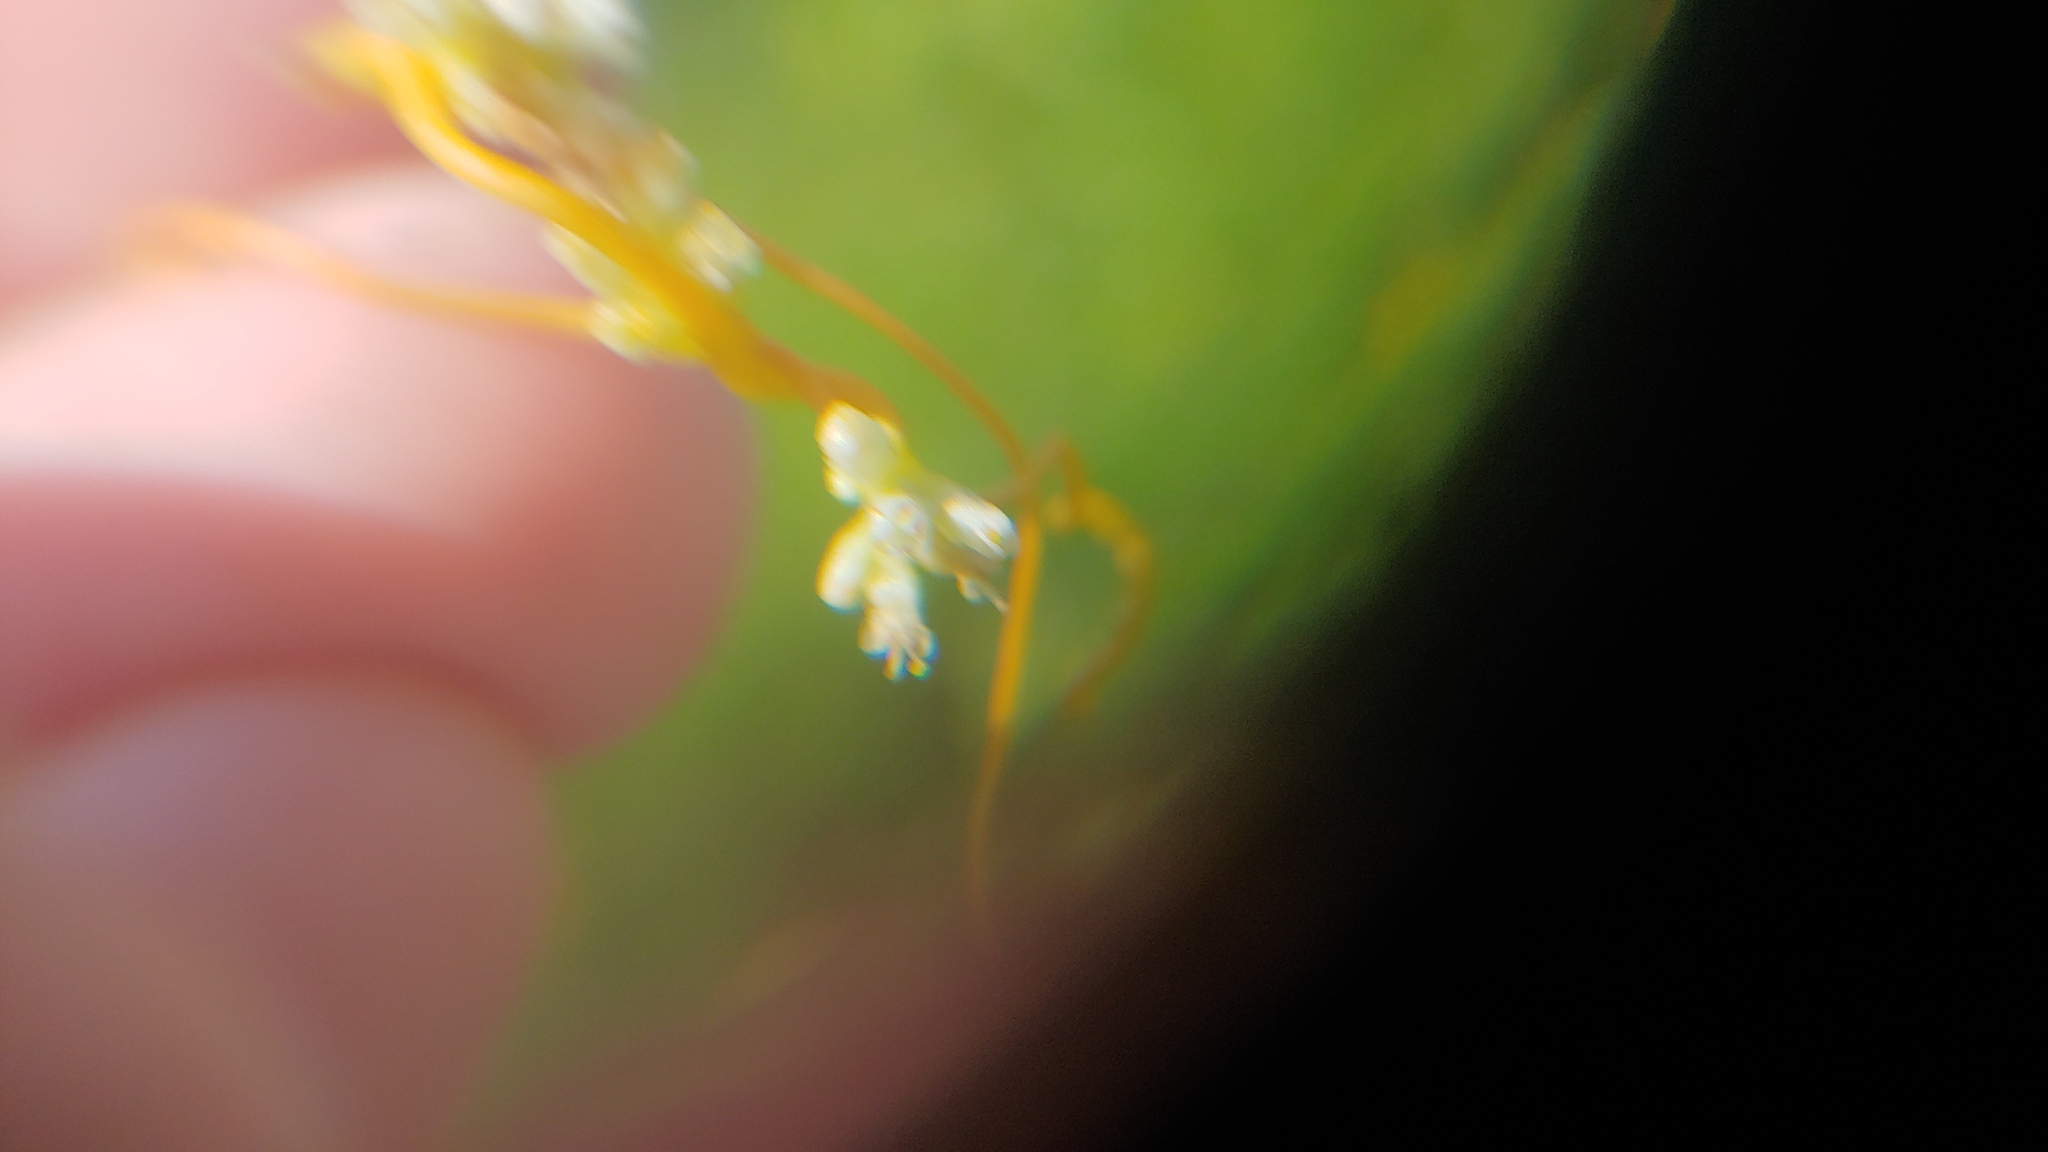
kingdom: Plantae
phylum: Tracheophyta
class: Magnoliopsida
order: Solanales
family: Convolvulaceae
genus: Cuscuta
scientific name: Cuscuta cephalanthi
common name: Button dodder
